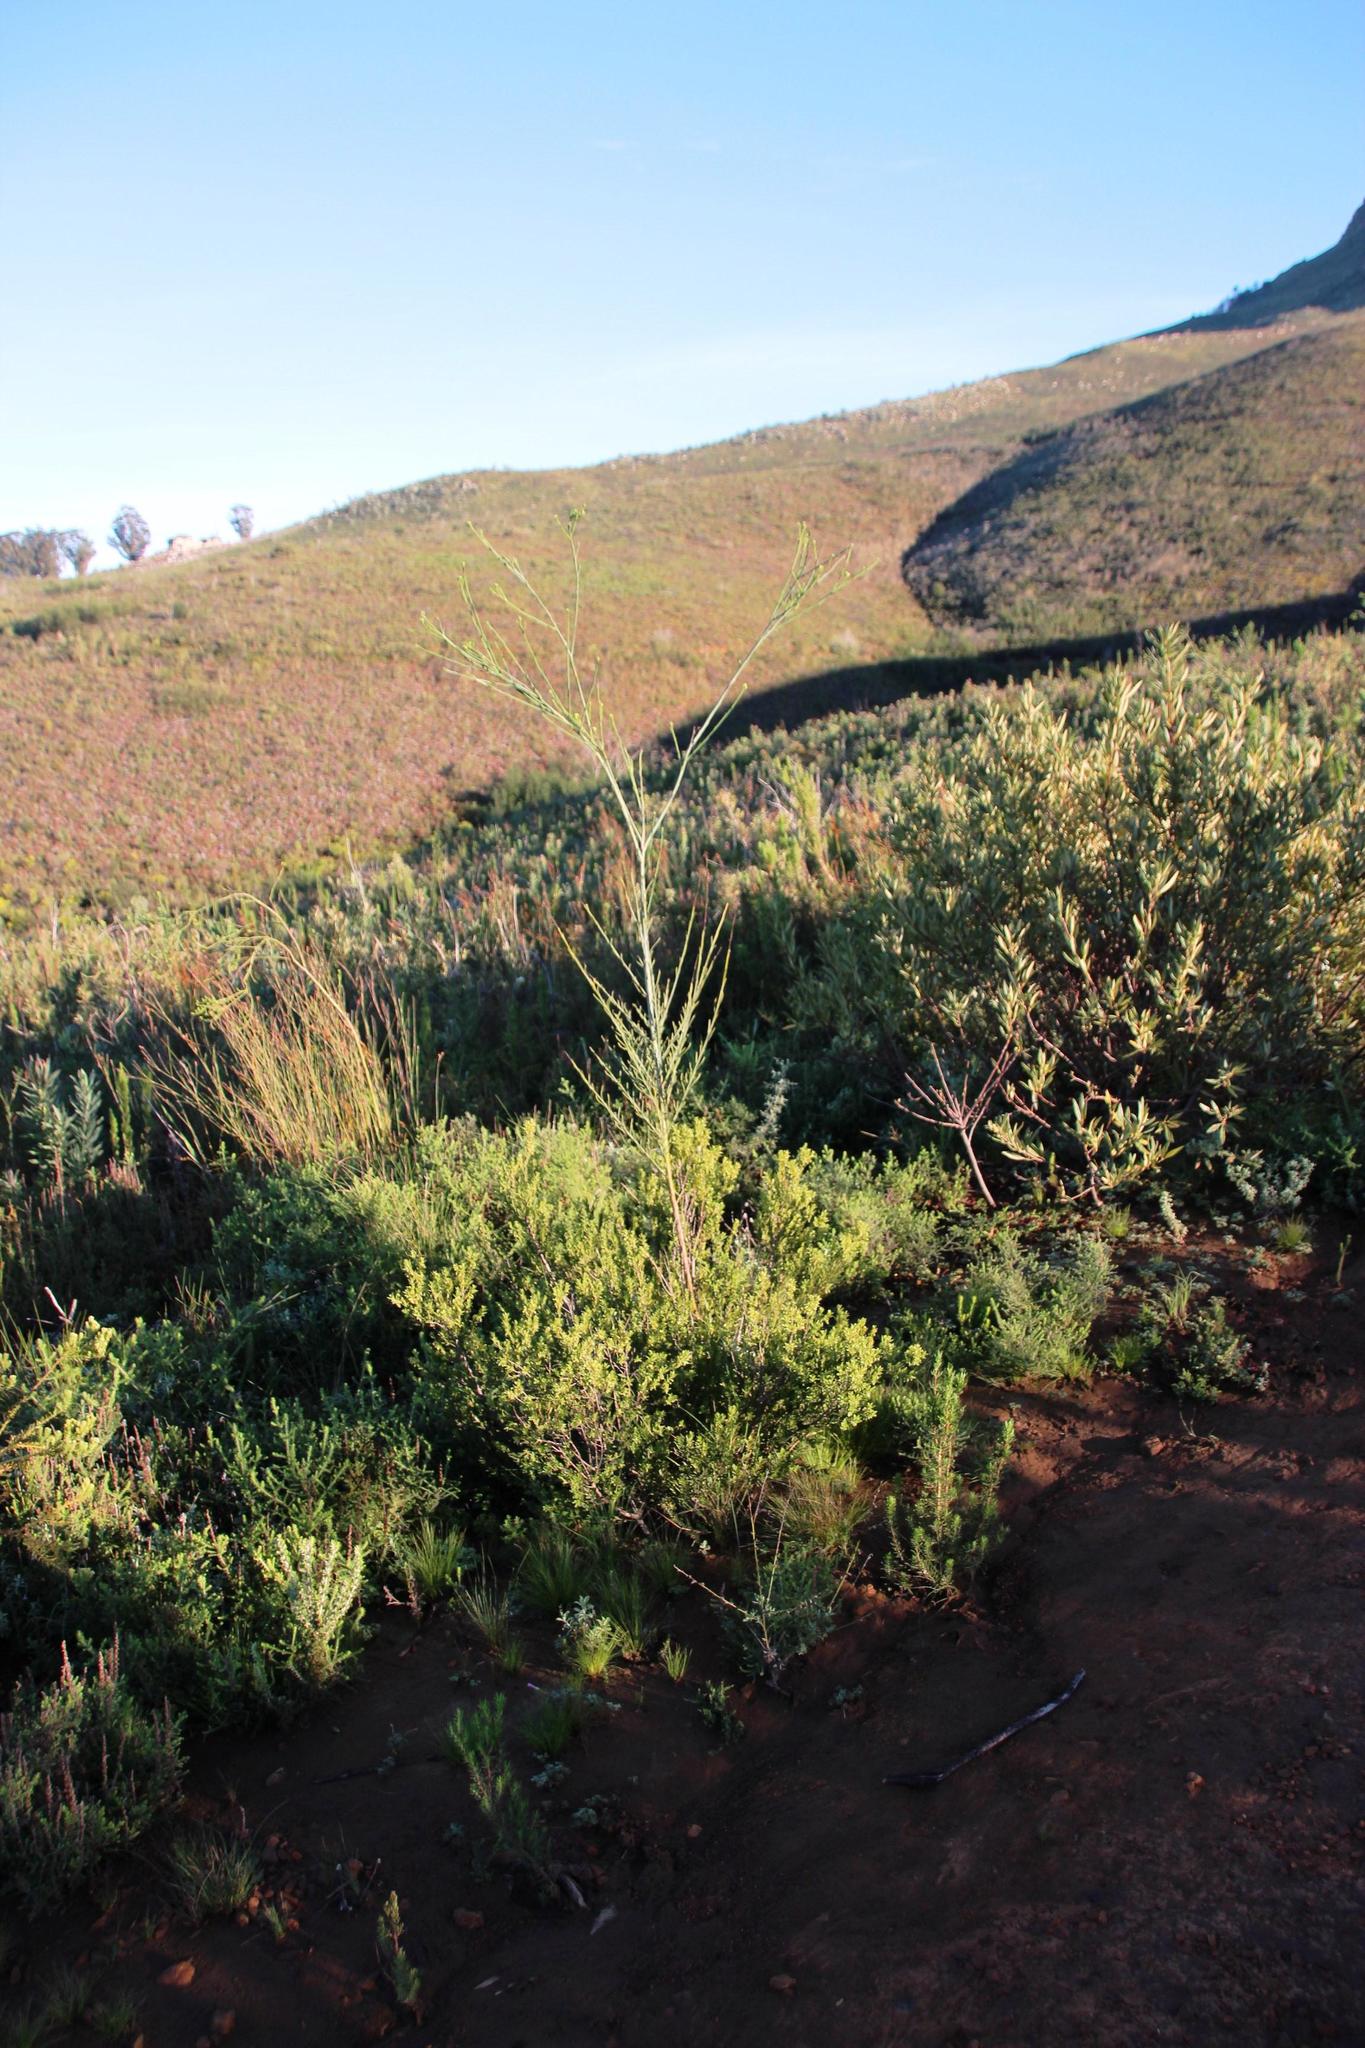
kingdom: Plantae
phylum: Tracheophyta
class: Magnoliopsida
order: Fabales
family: Fabaceae
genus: Aspalathus
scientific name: Aspalathus willdenowiana
